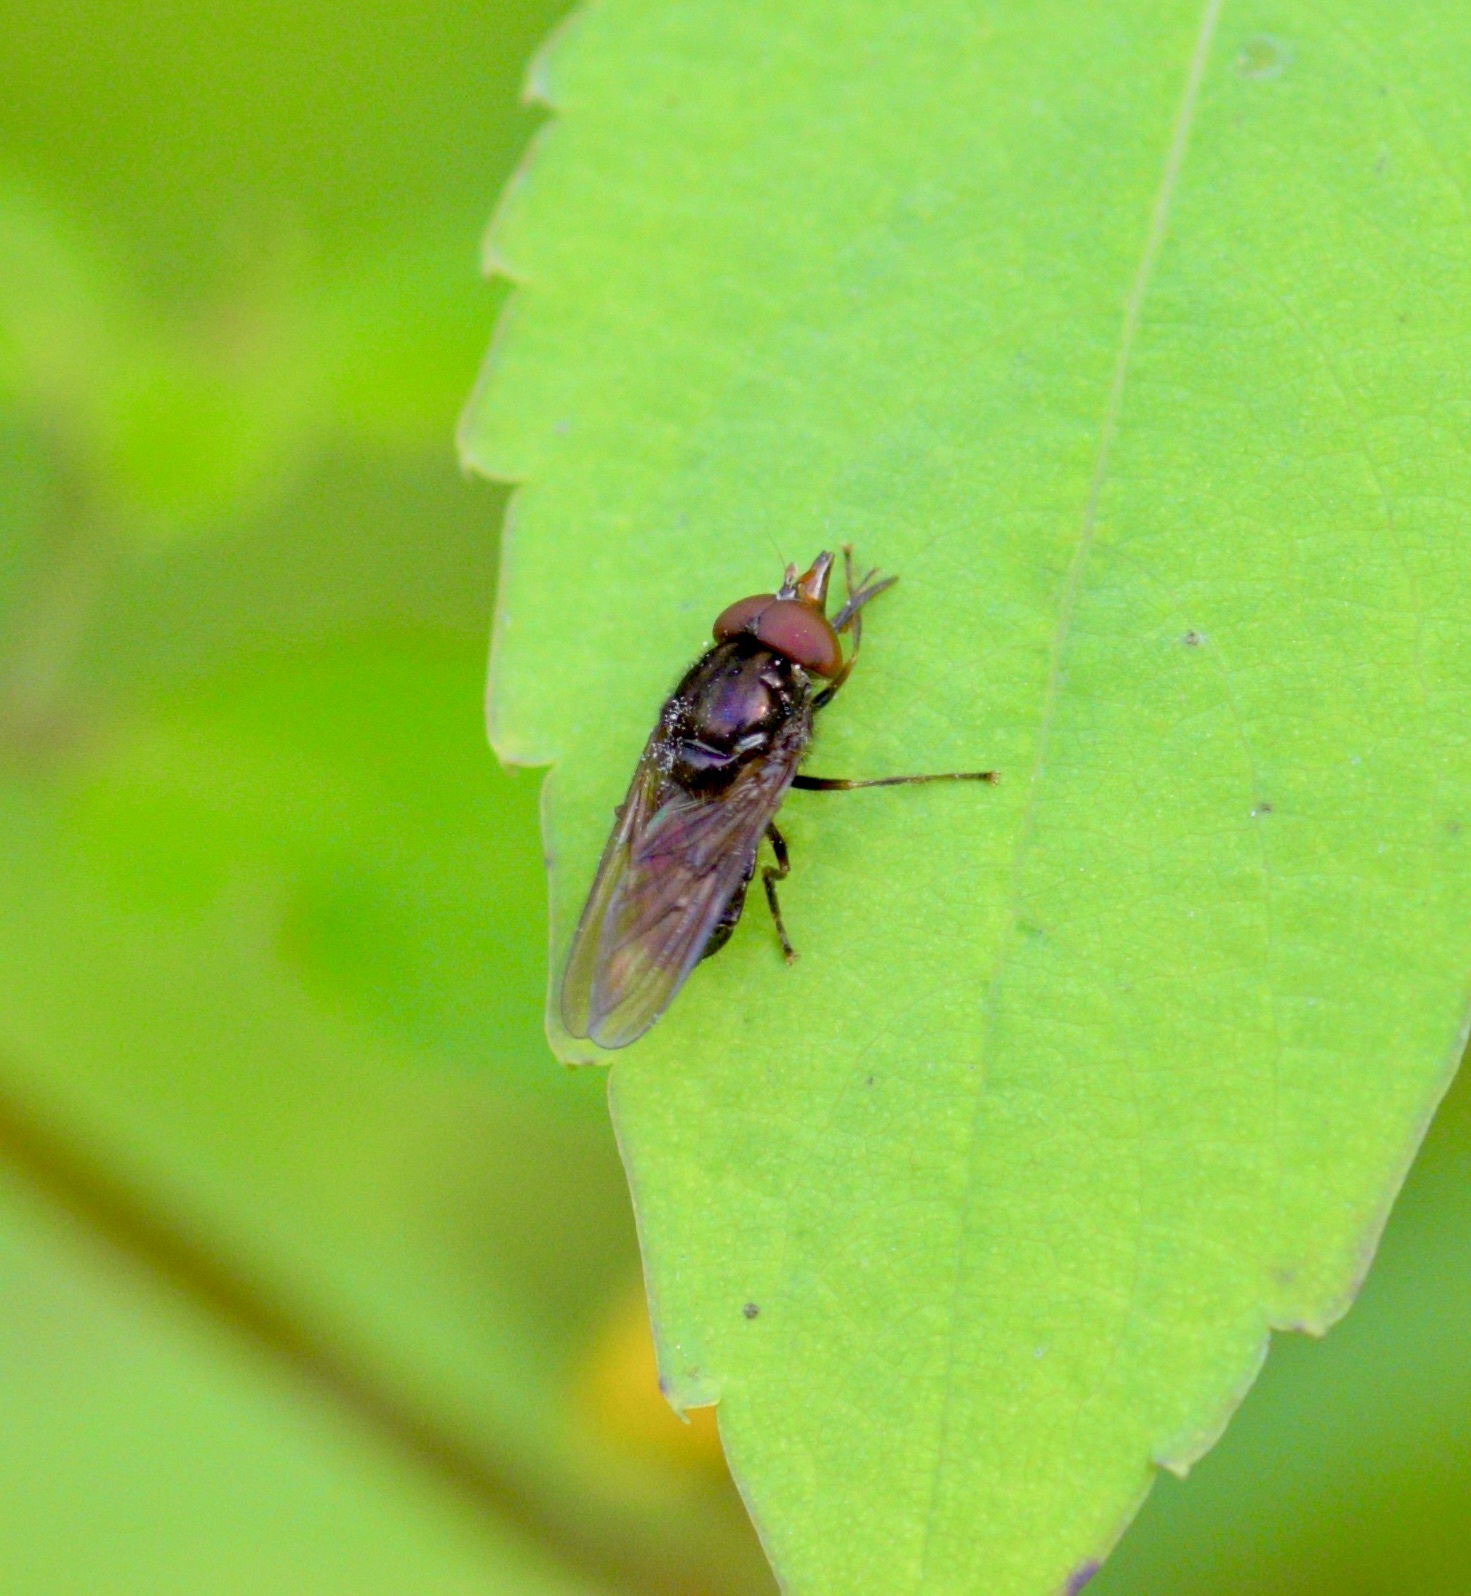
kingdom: Animalia
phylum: Arthropoda
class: Insecta
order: Diptera
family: Syrphidae
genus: Rhingia
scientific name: Rhingia nasica
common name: American snout fly
